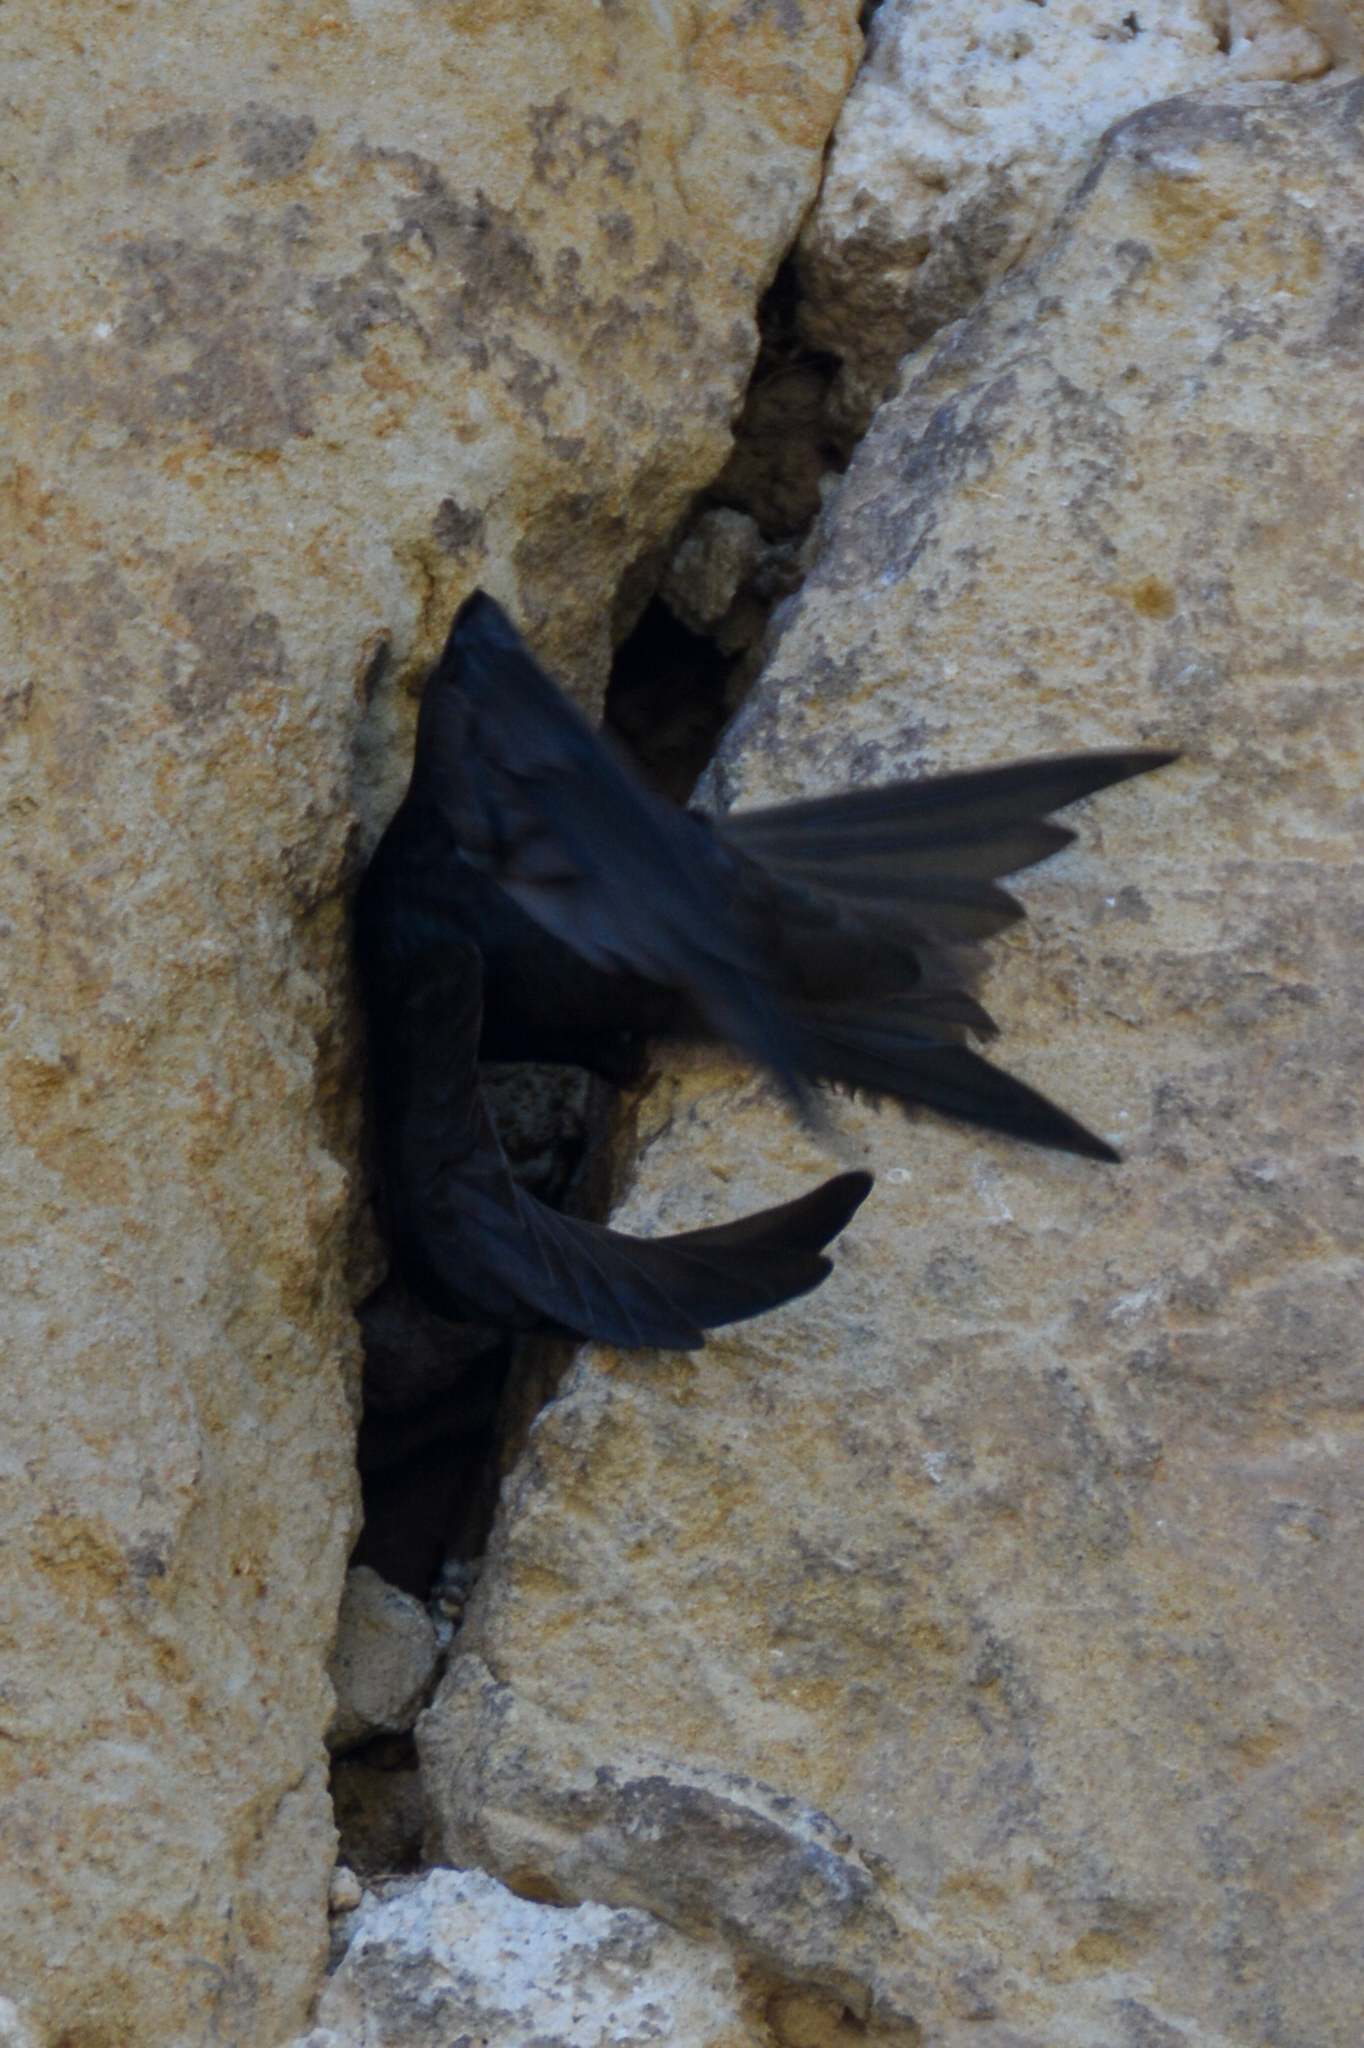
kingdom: Animalia
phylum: Chordata
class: Aves
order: Apodiformes
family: Apodidae
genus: Apus
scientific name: Apus apus
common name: Common swift
